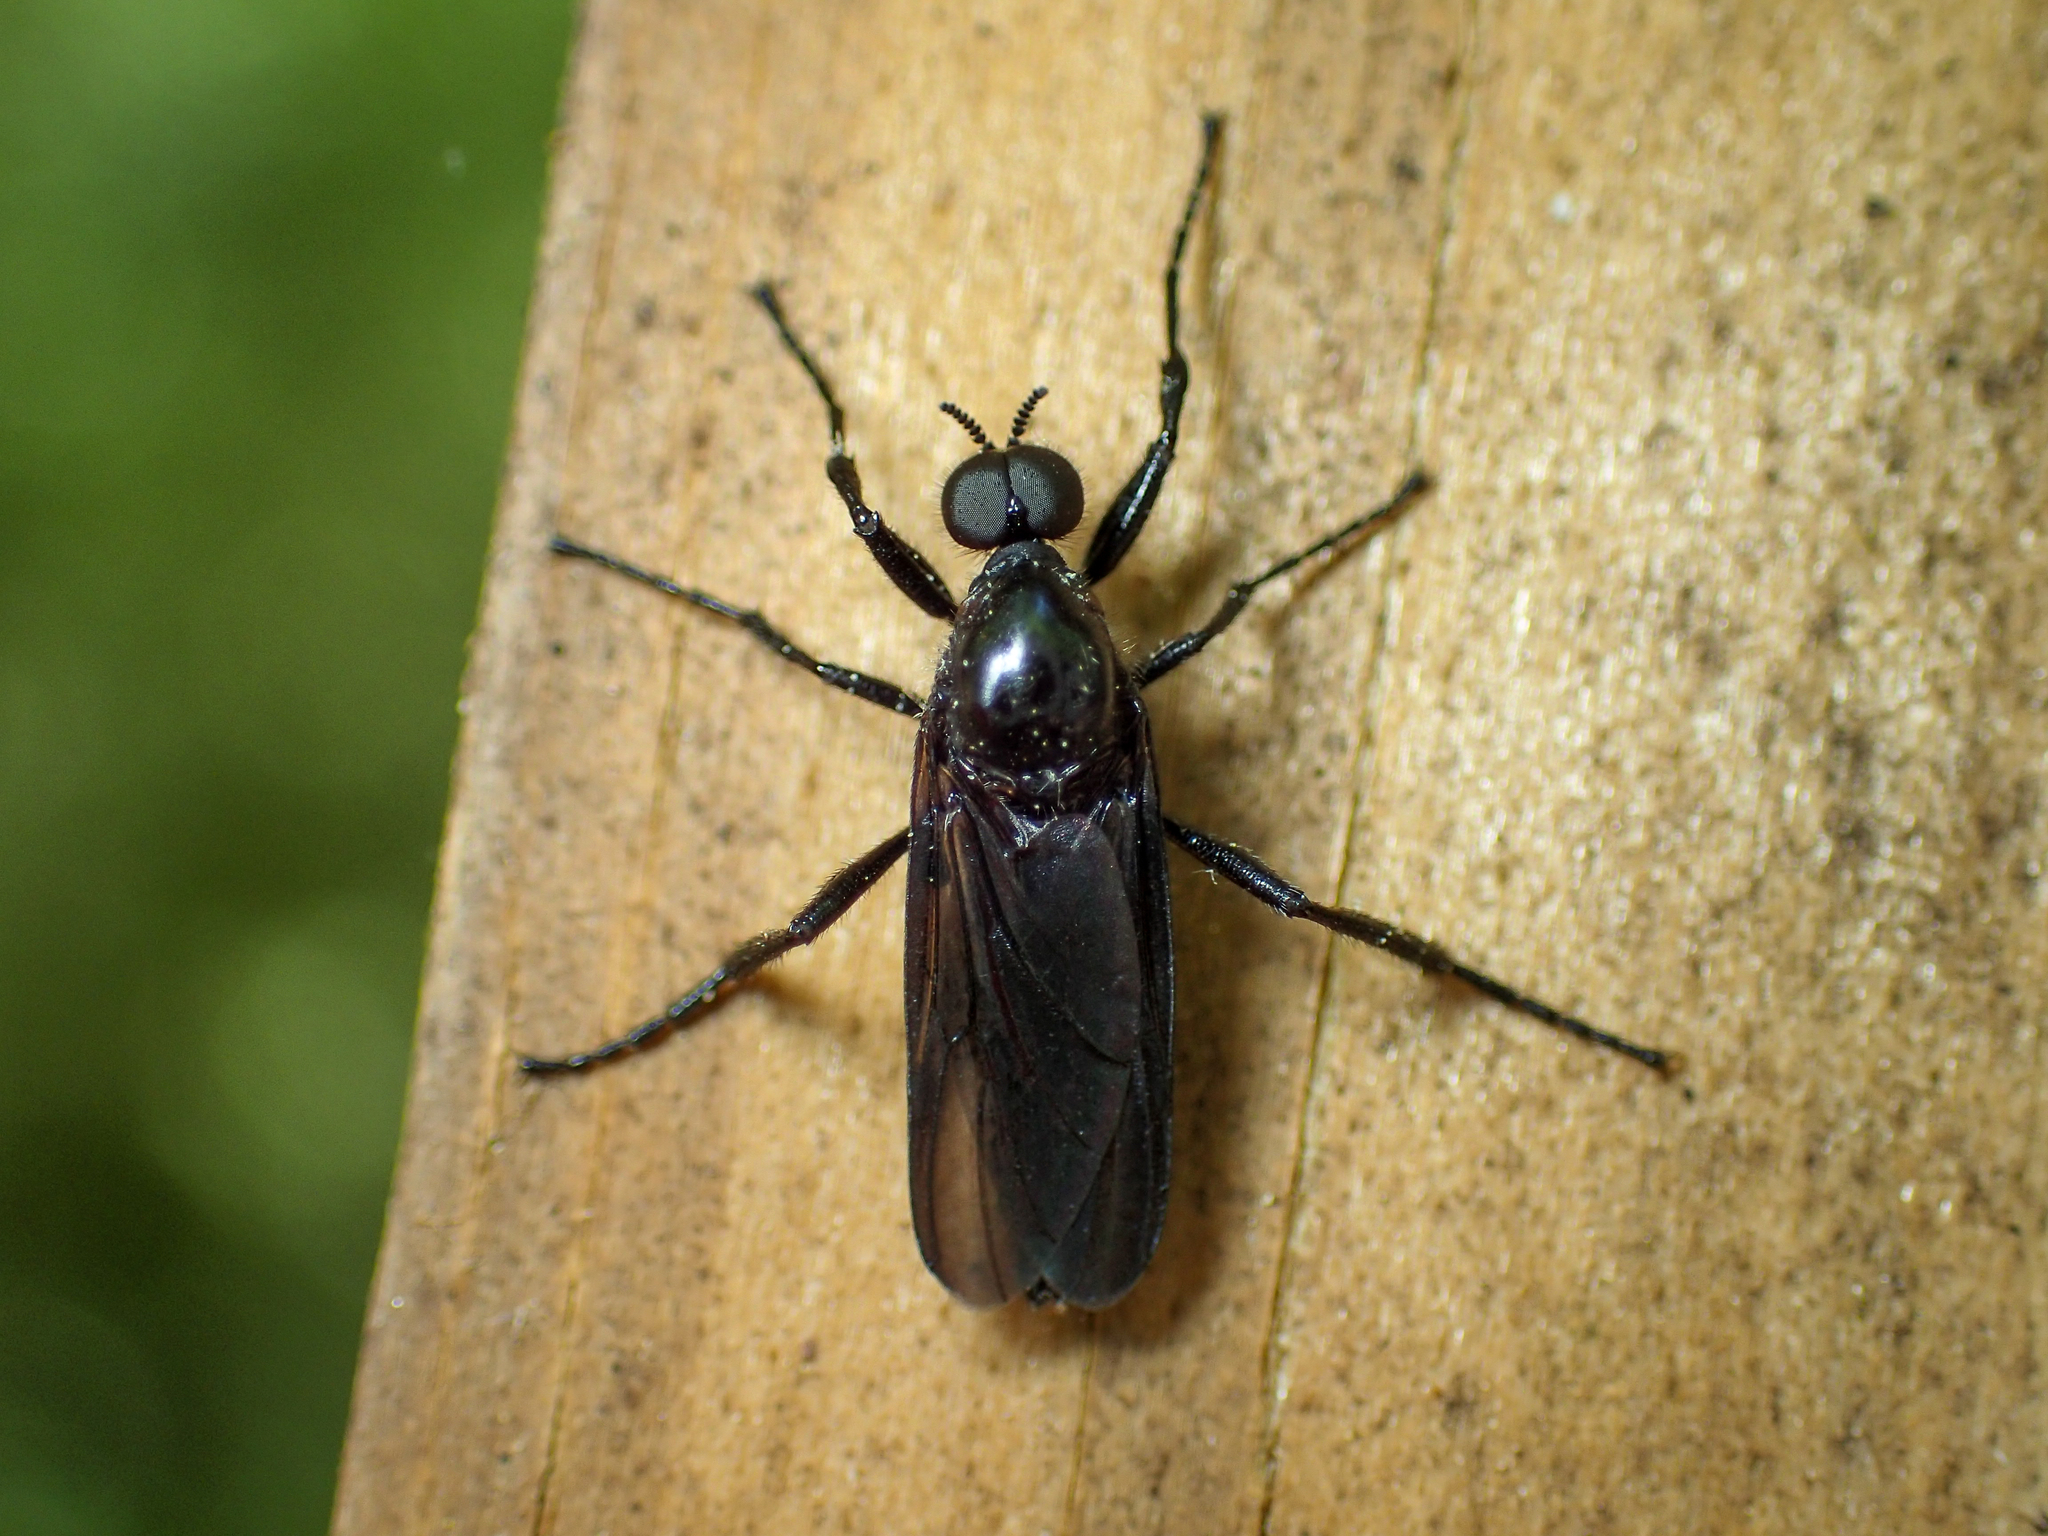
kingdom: Animalia
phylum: Arthropoda
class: Insecta
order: Diptera
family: Bibionidae
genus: Bibio
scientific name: Bibio superfluus
